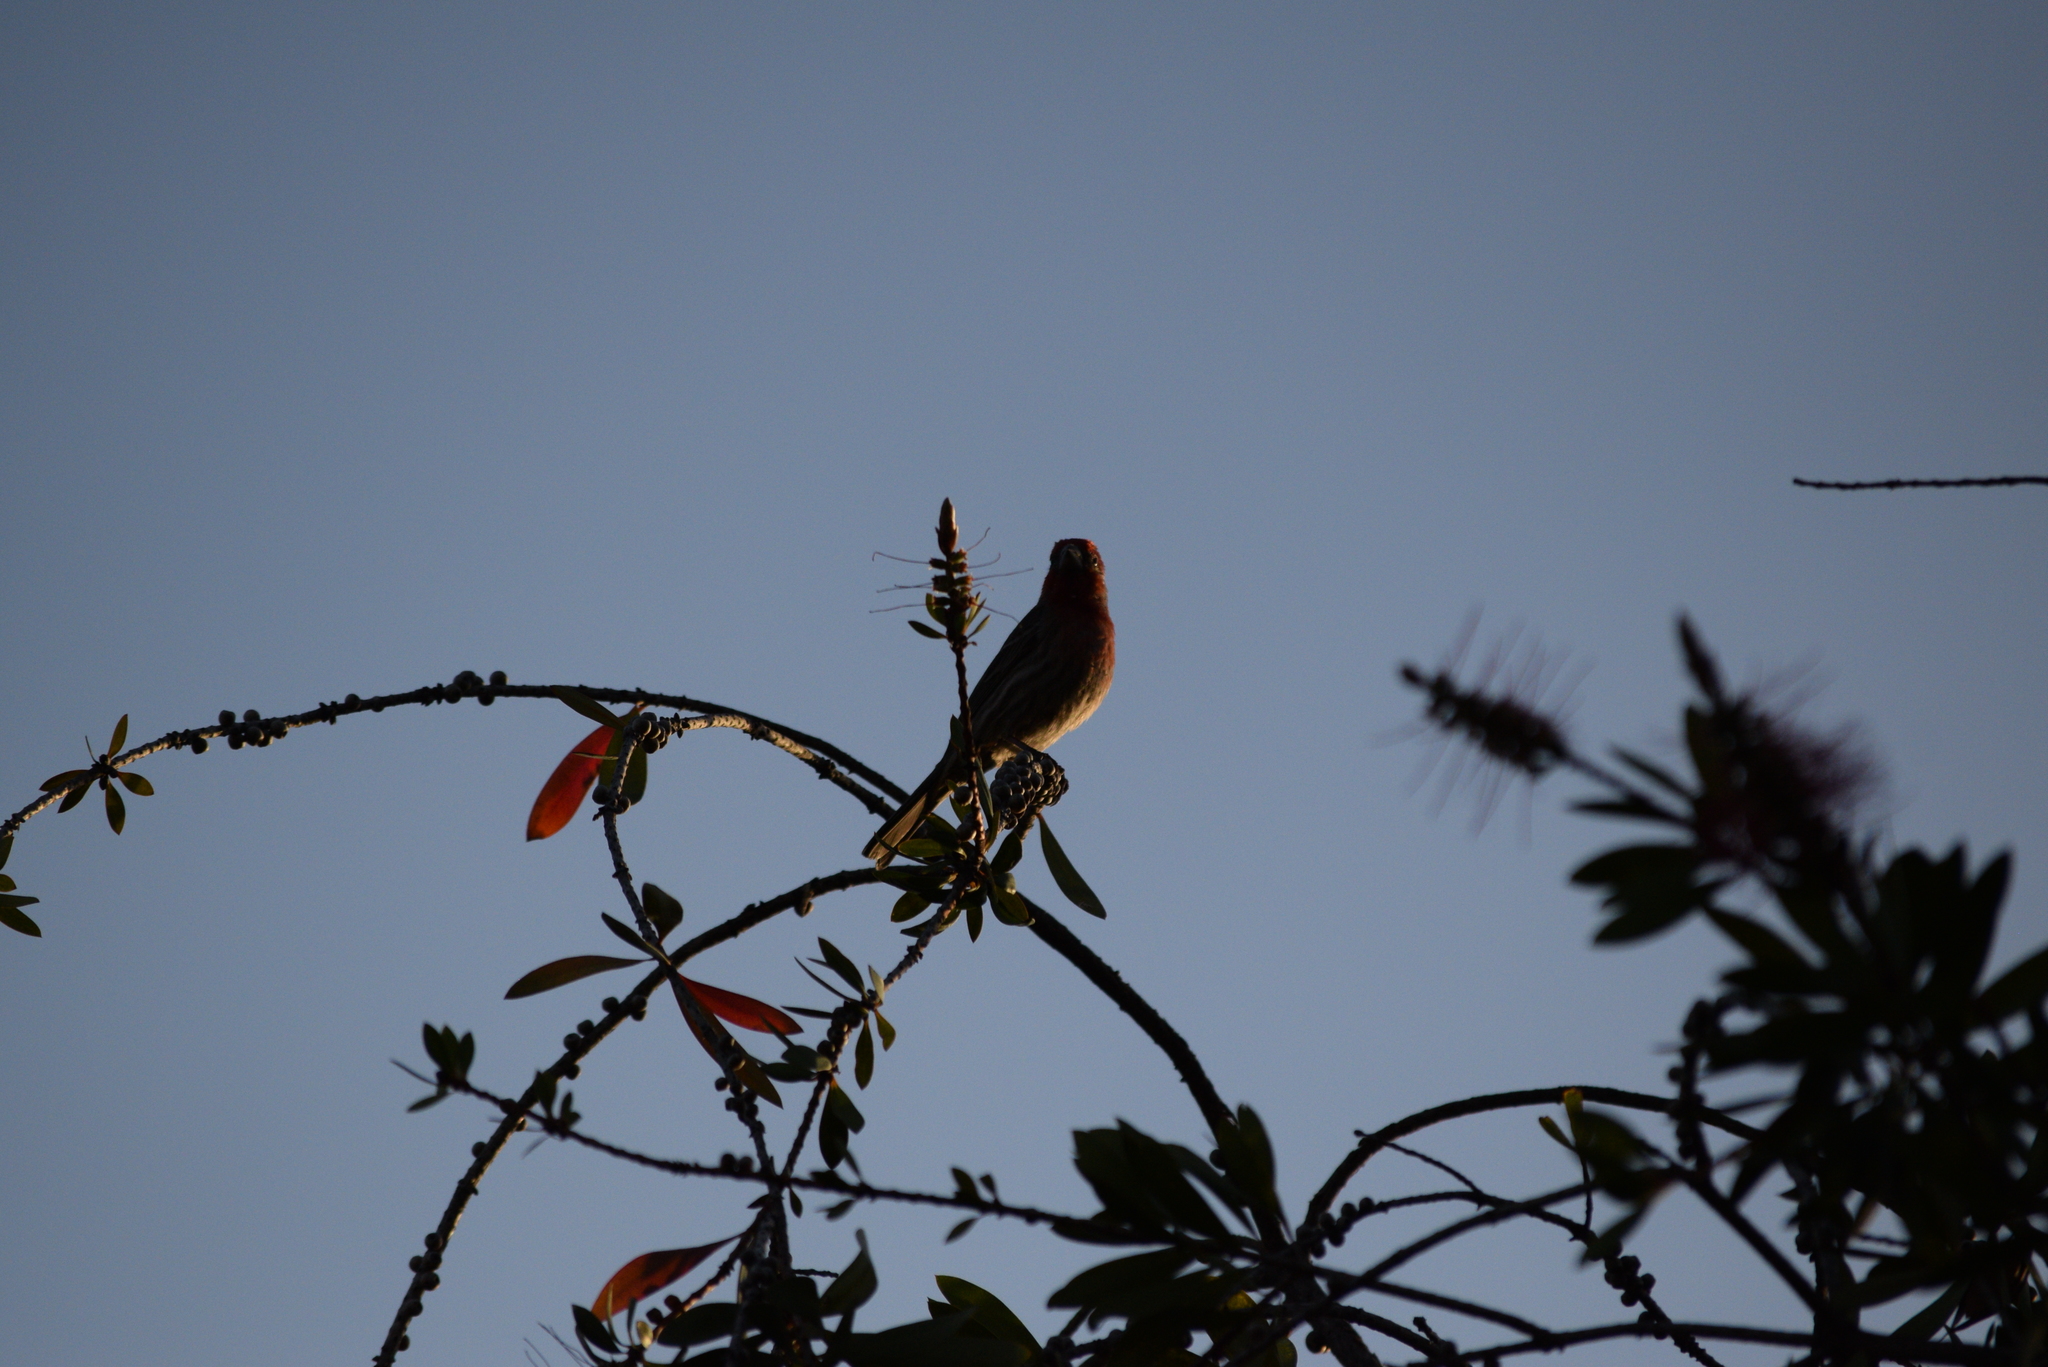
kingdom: Animalia
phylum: Chordata
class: Aves
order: Passeriformes
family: Fringillidae
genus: Haemorhous
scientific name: Haemorhous mexicanus
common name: House finch
